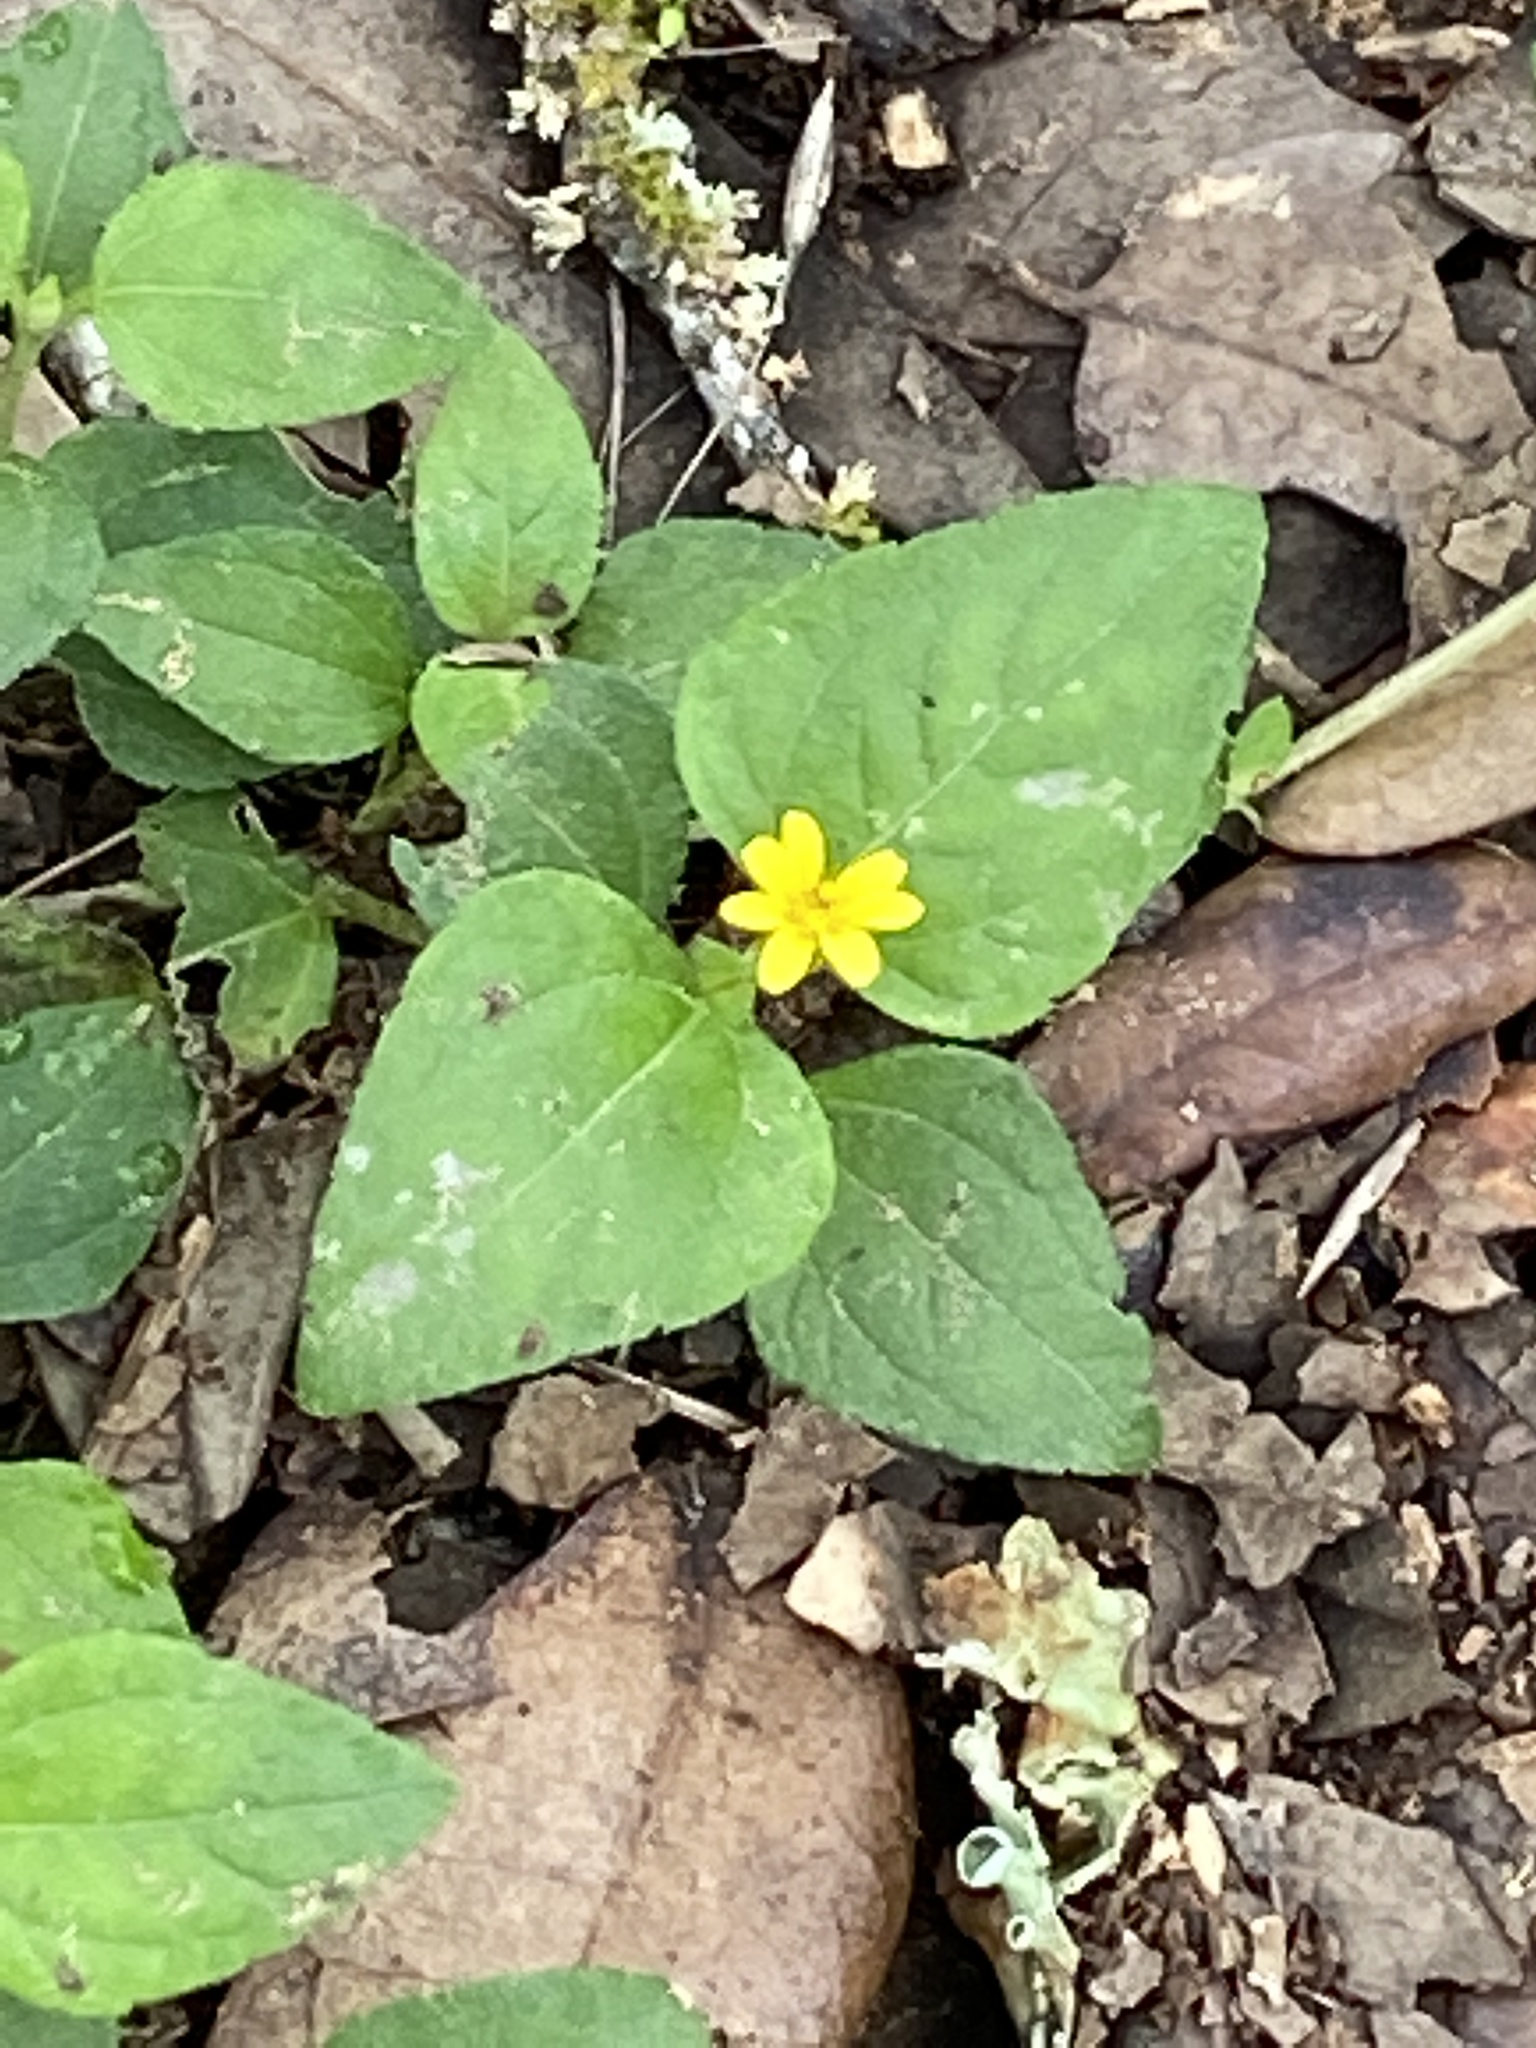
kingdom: Plantae
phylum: Tracheophyta
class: Magnoliopsida
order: Asterales
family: Asteraceae
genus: Calyptocarpus
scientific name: Calyptocarpus vialis
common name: Straggler daisy
